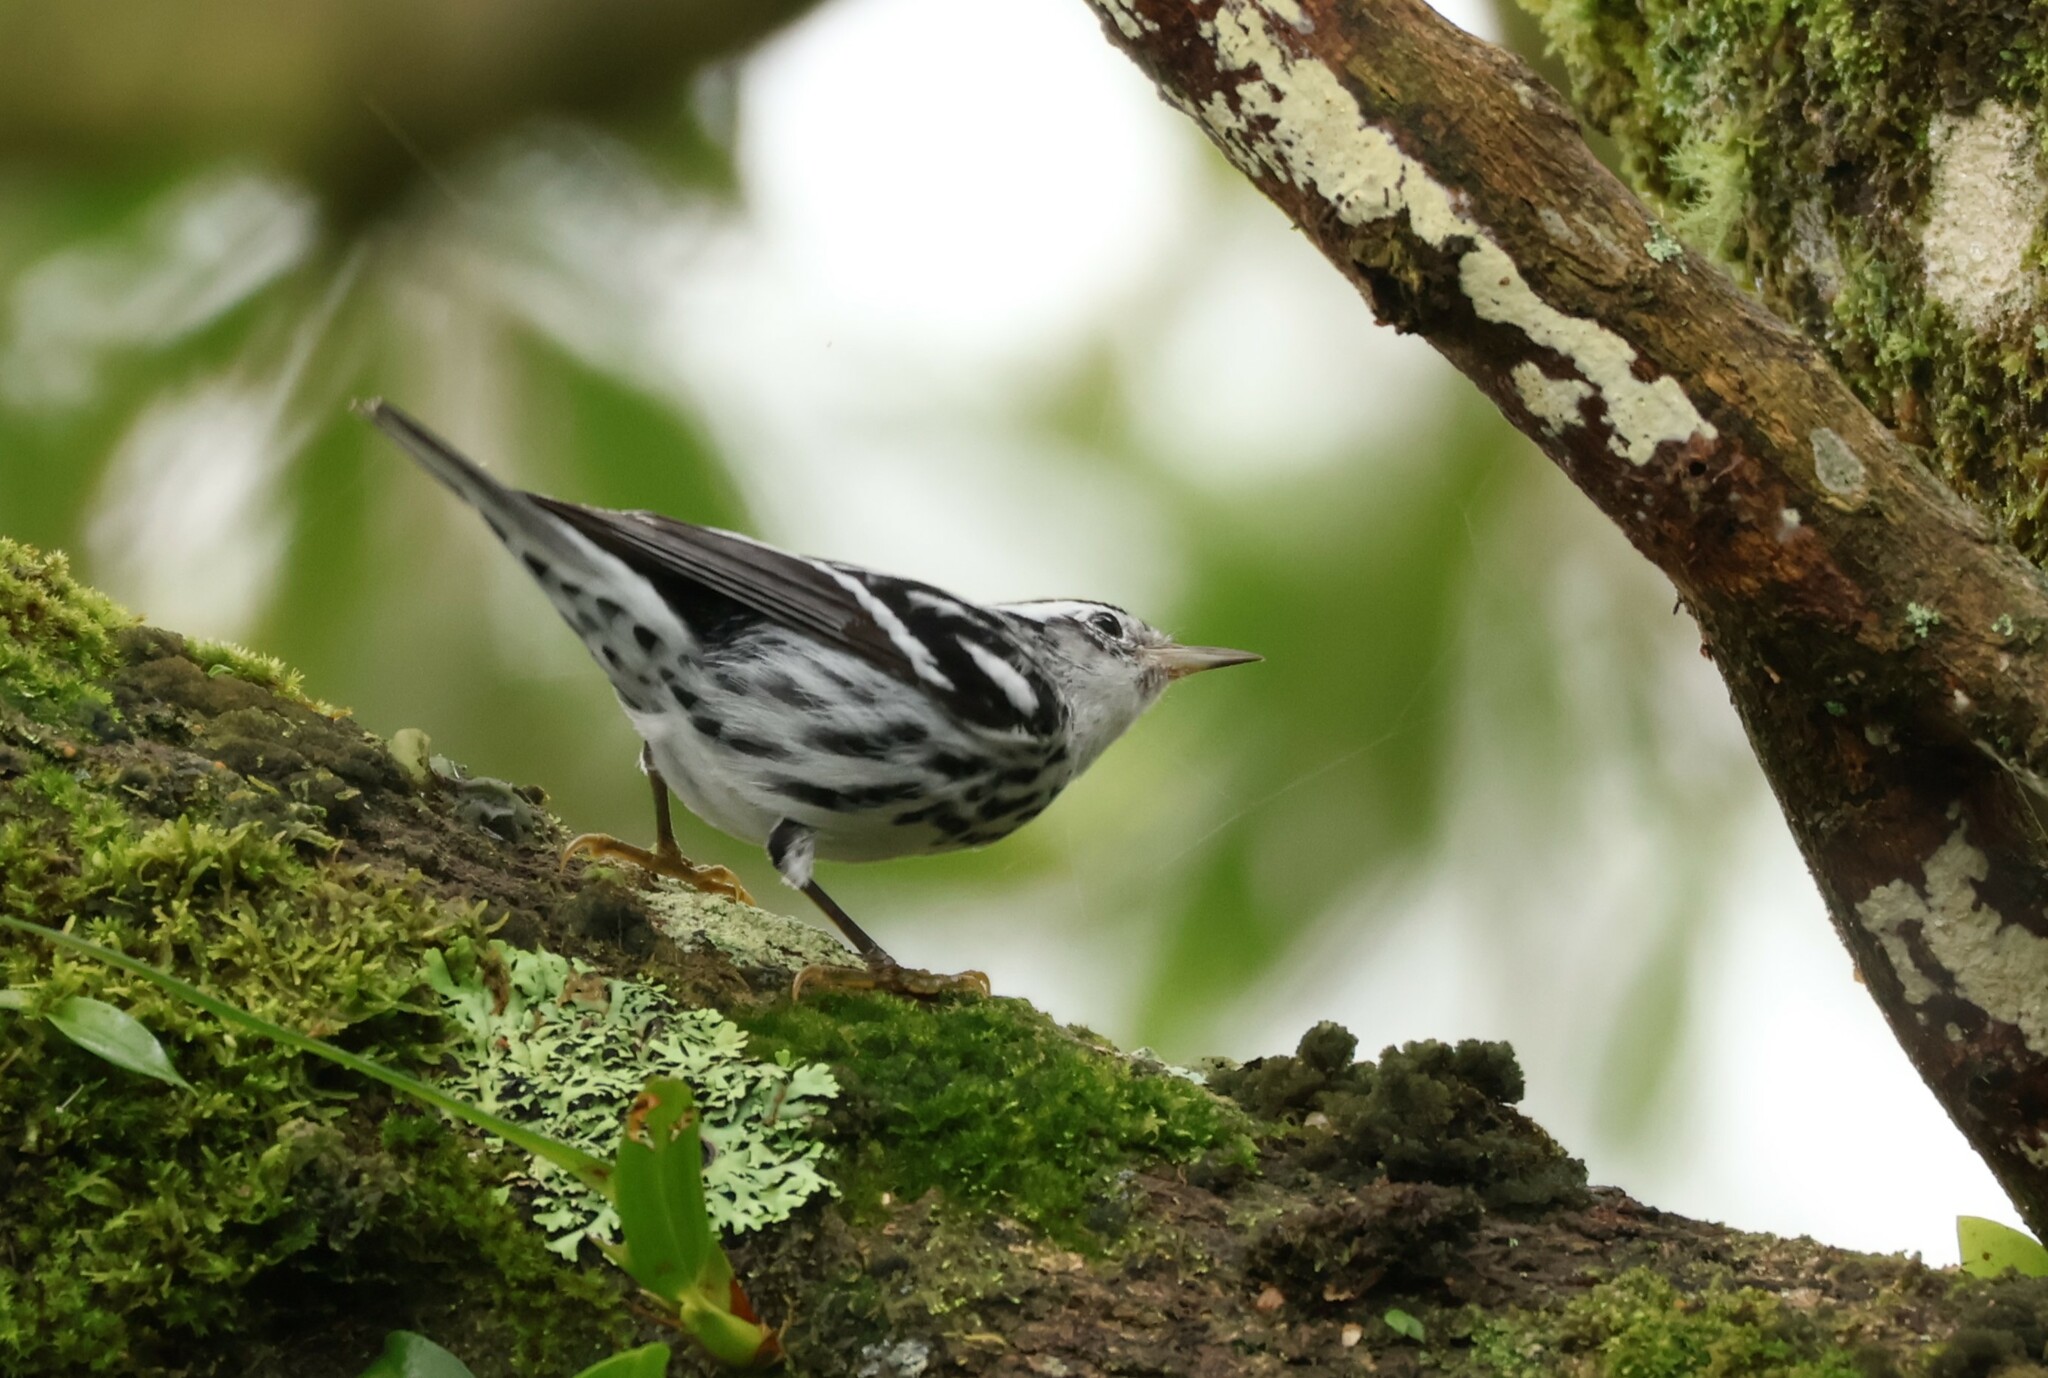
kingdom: Animalia
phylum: Chordata
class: Aves
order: Passeriformes
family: Parulidae
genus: Mniotilta
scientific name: Mniotilta varia
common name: Black-and-white warbler
